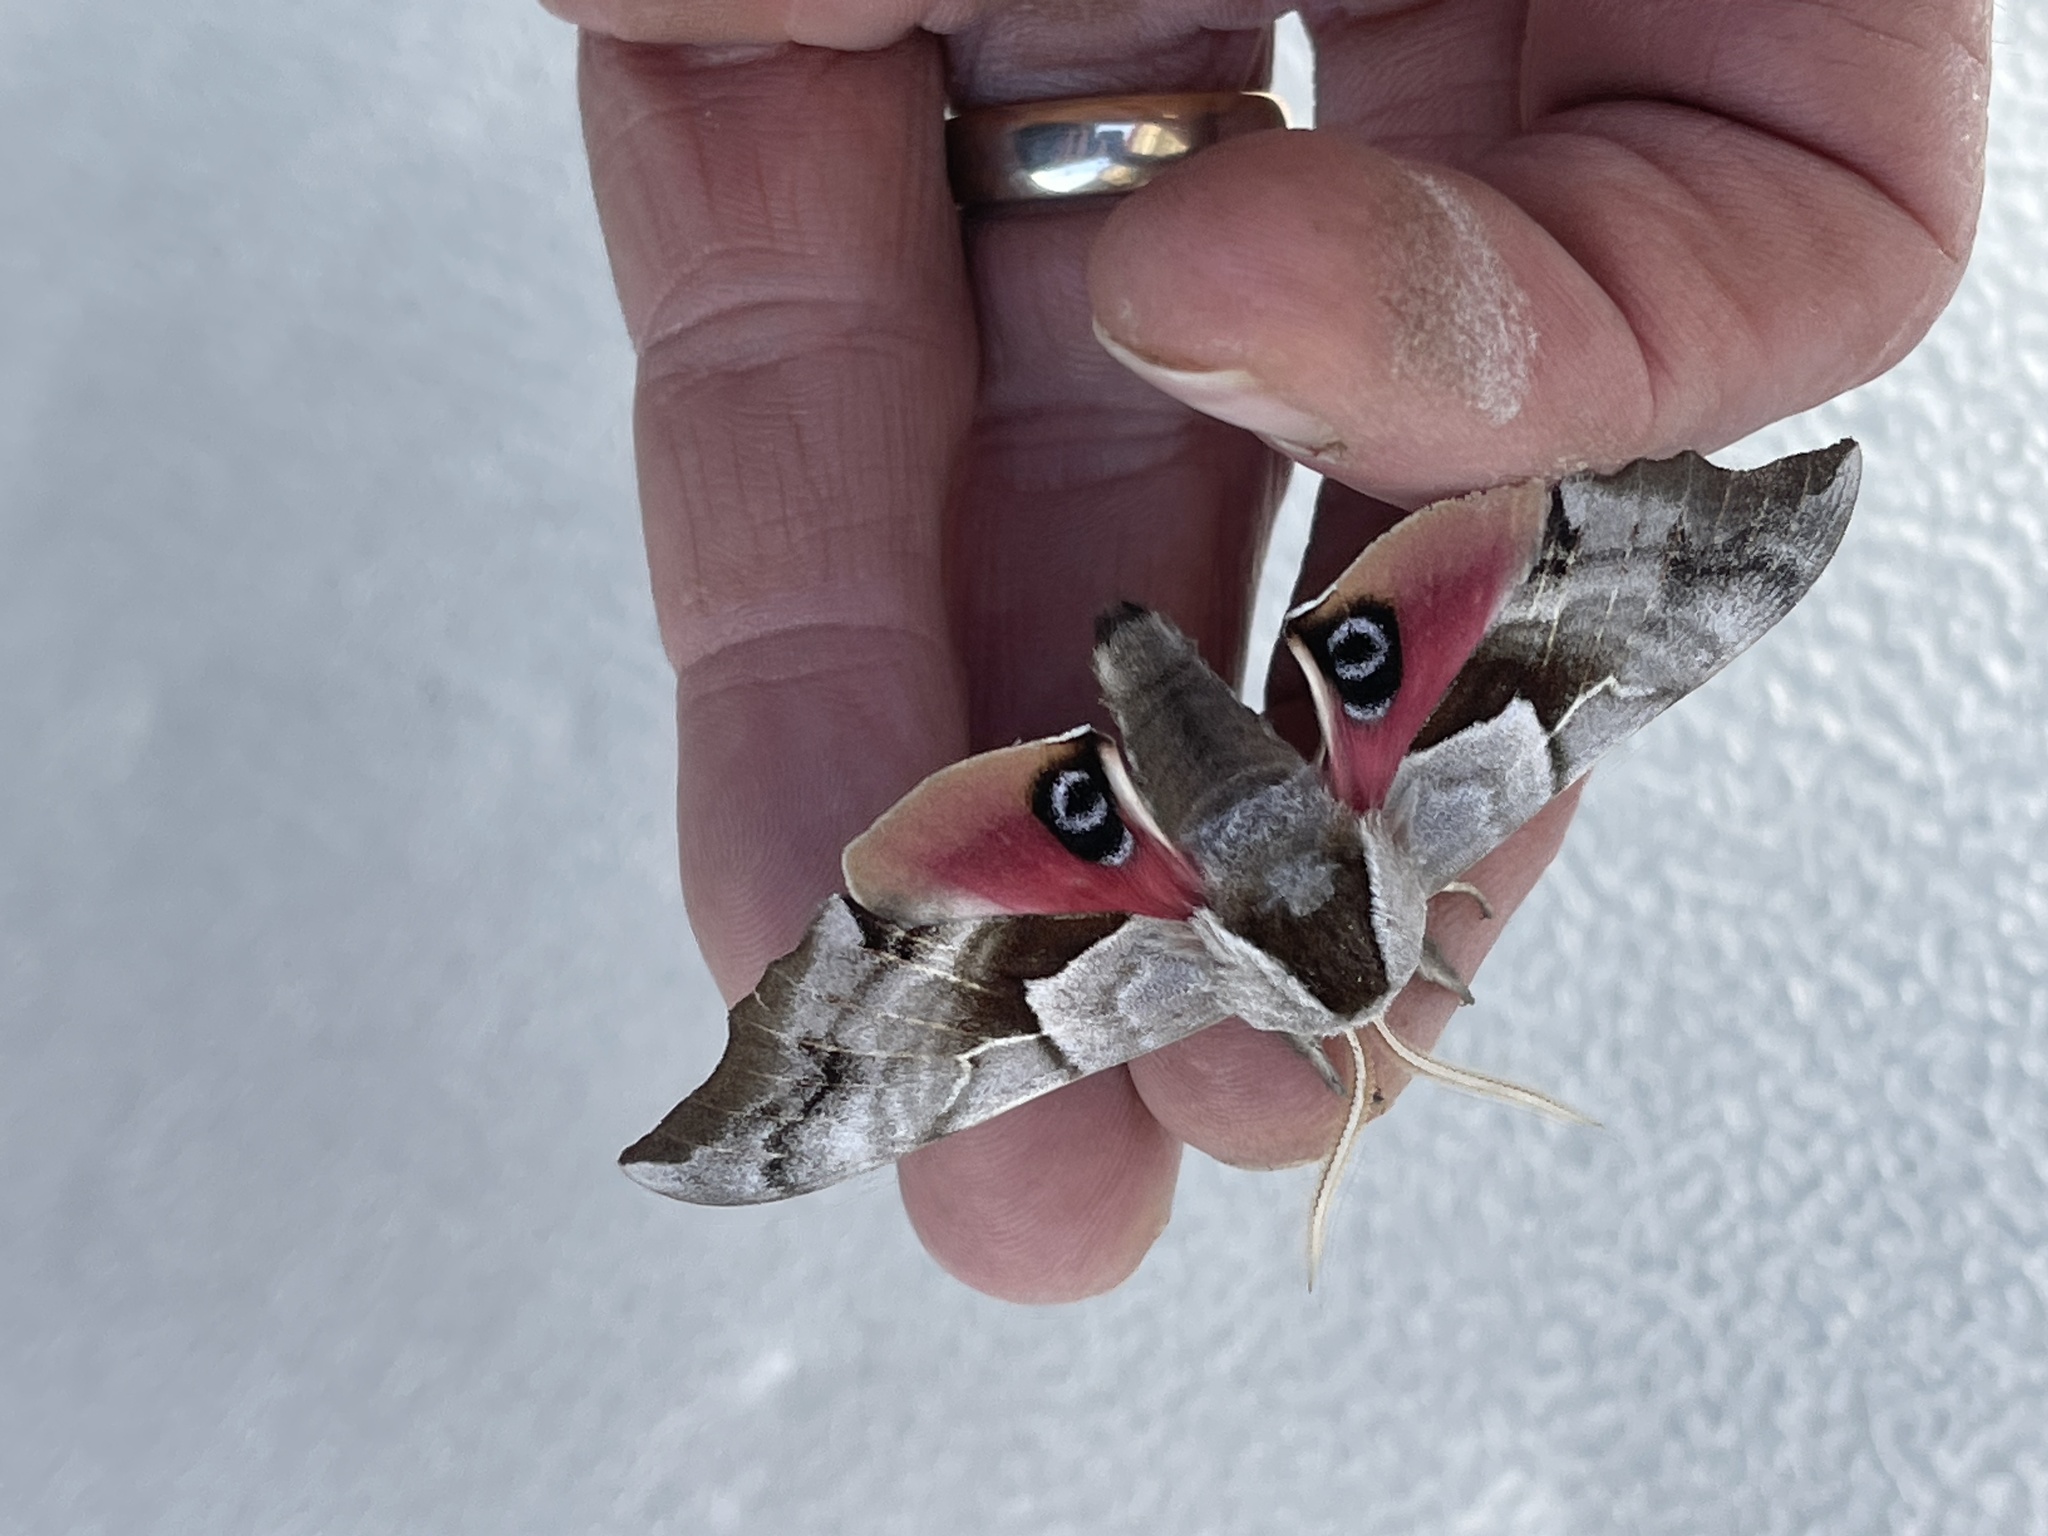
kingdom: Animalia
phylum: Arthropoda
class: Insecta
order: Lepidoptera
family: Sphingidae
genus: Smerinthus
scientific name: Smerinthus cerisyi
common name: Cerisy's sphinx moth
